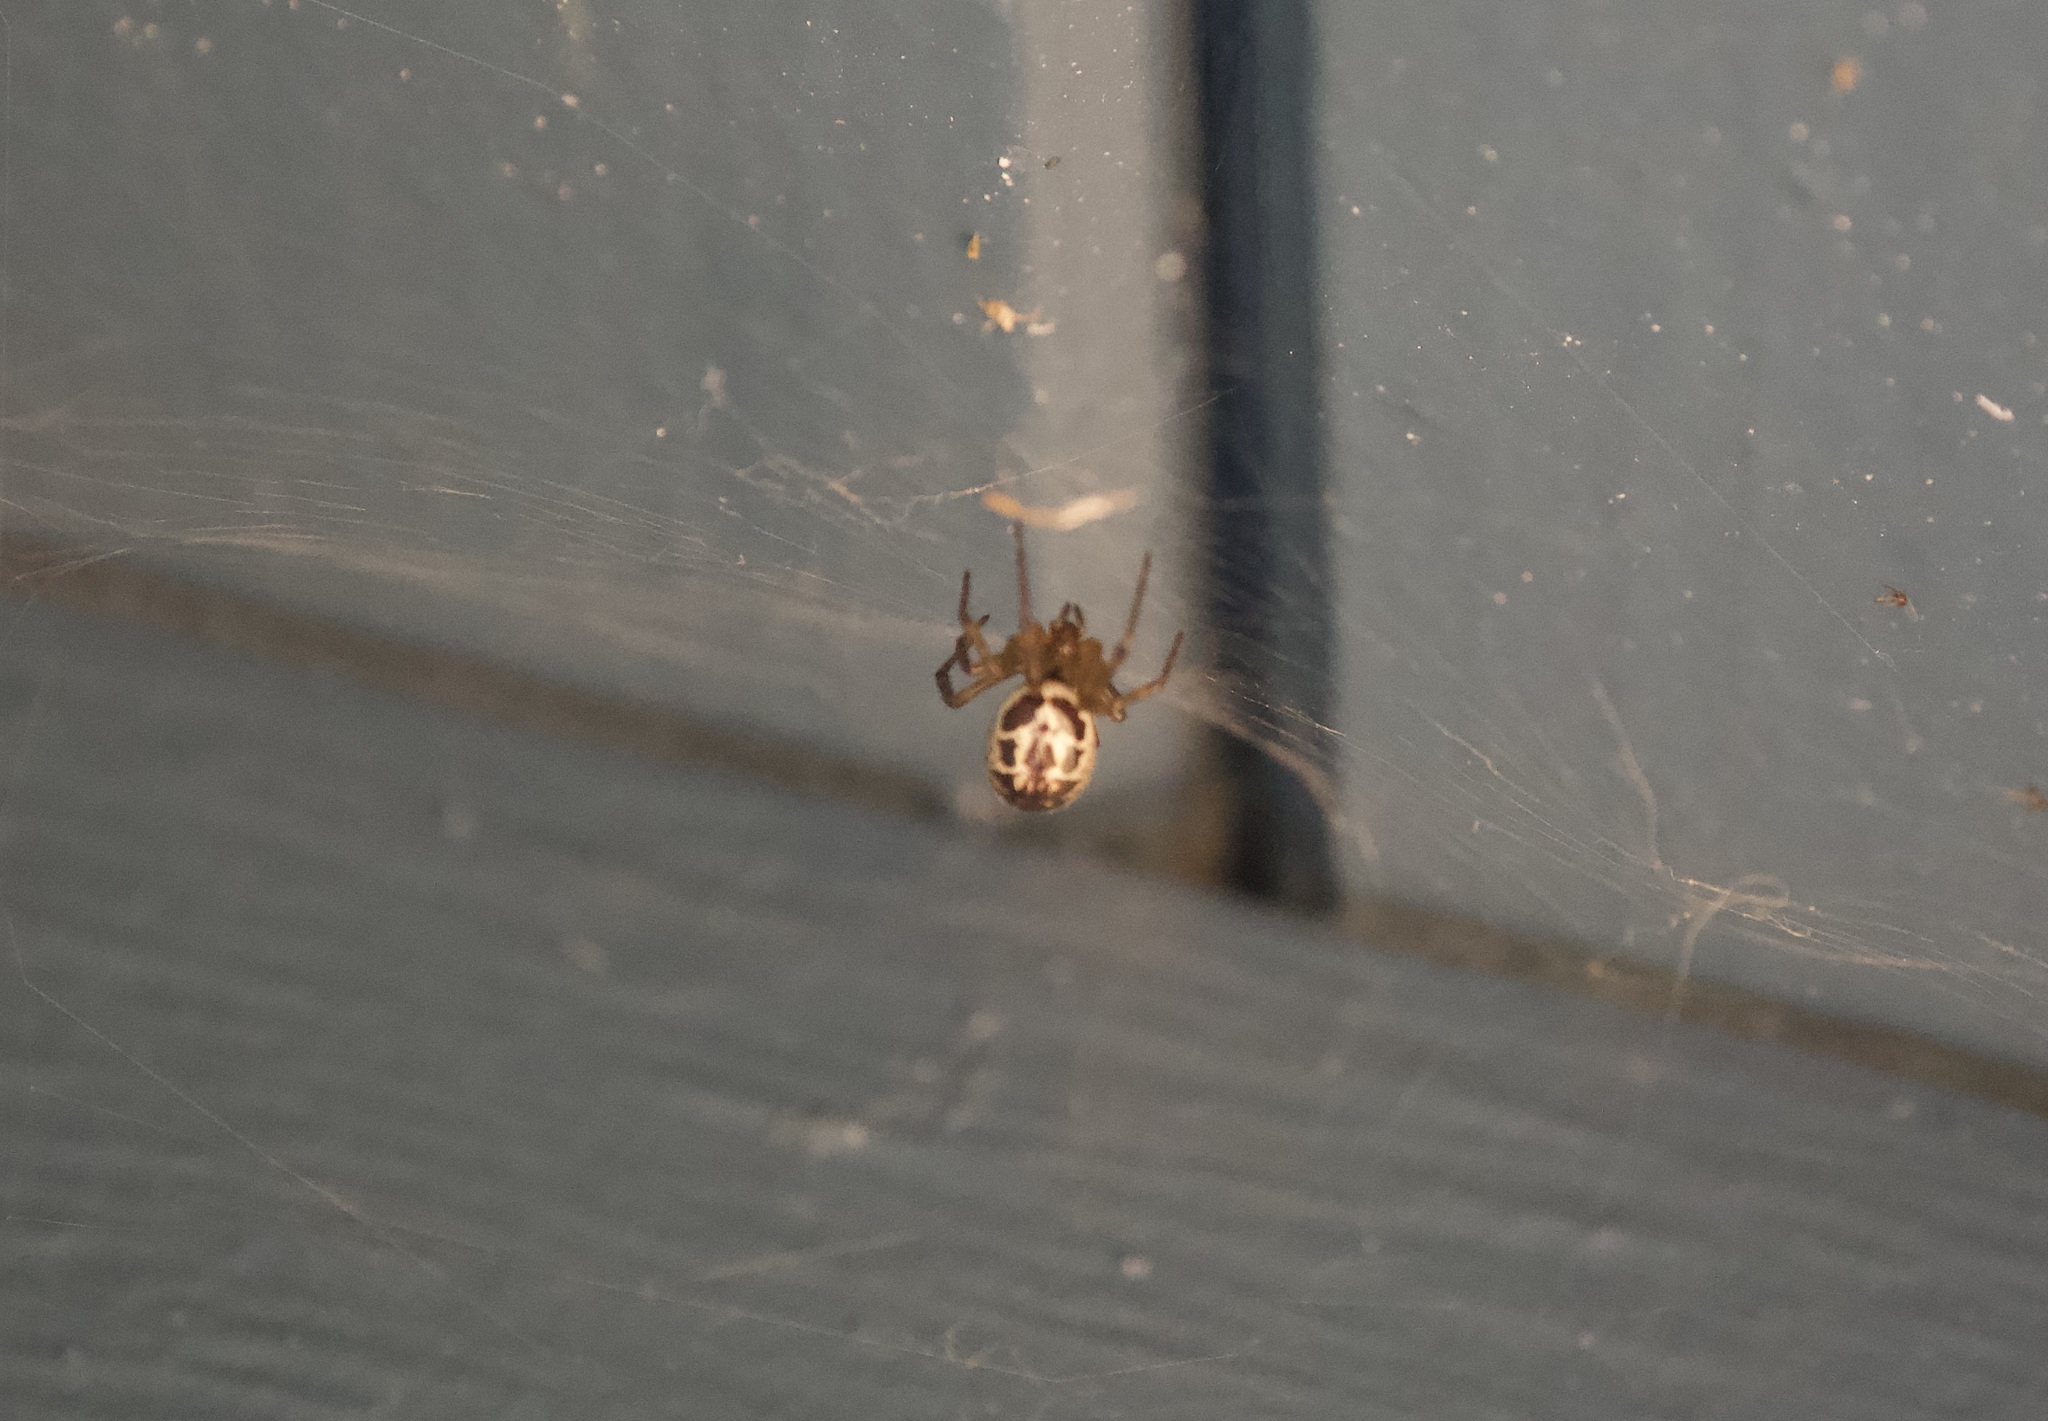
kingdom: Animalia
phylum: Arthropoda
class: Arachnida
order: Araneae
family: Theridiidae
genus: Steatoda
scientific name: Steatoda nobilis
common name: Cobweb weaver
